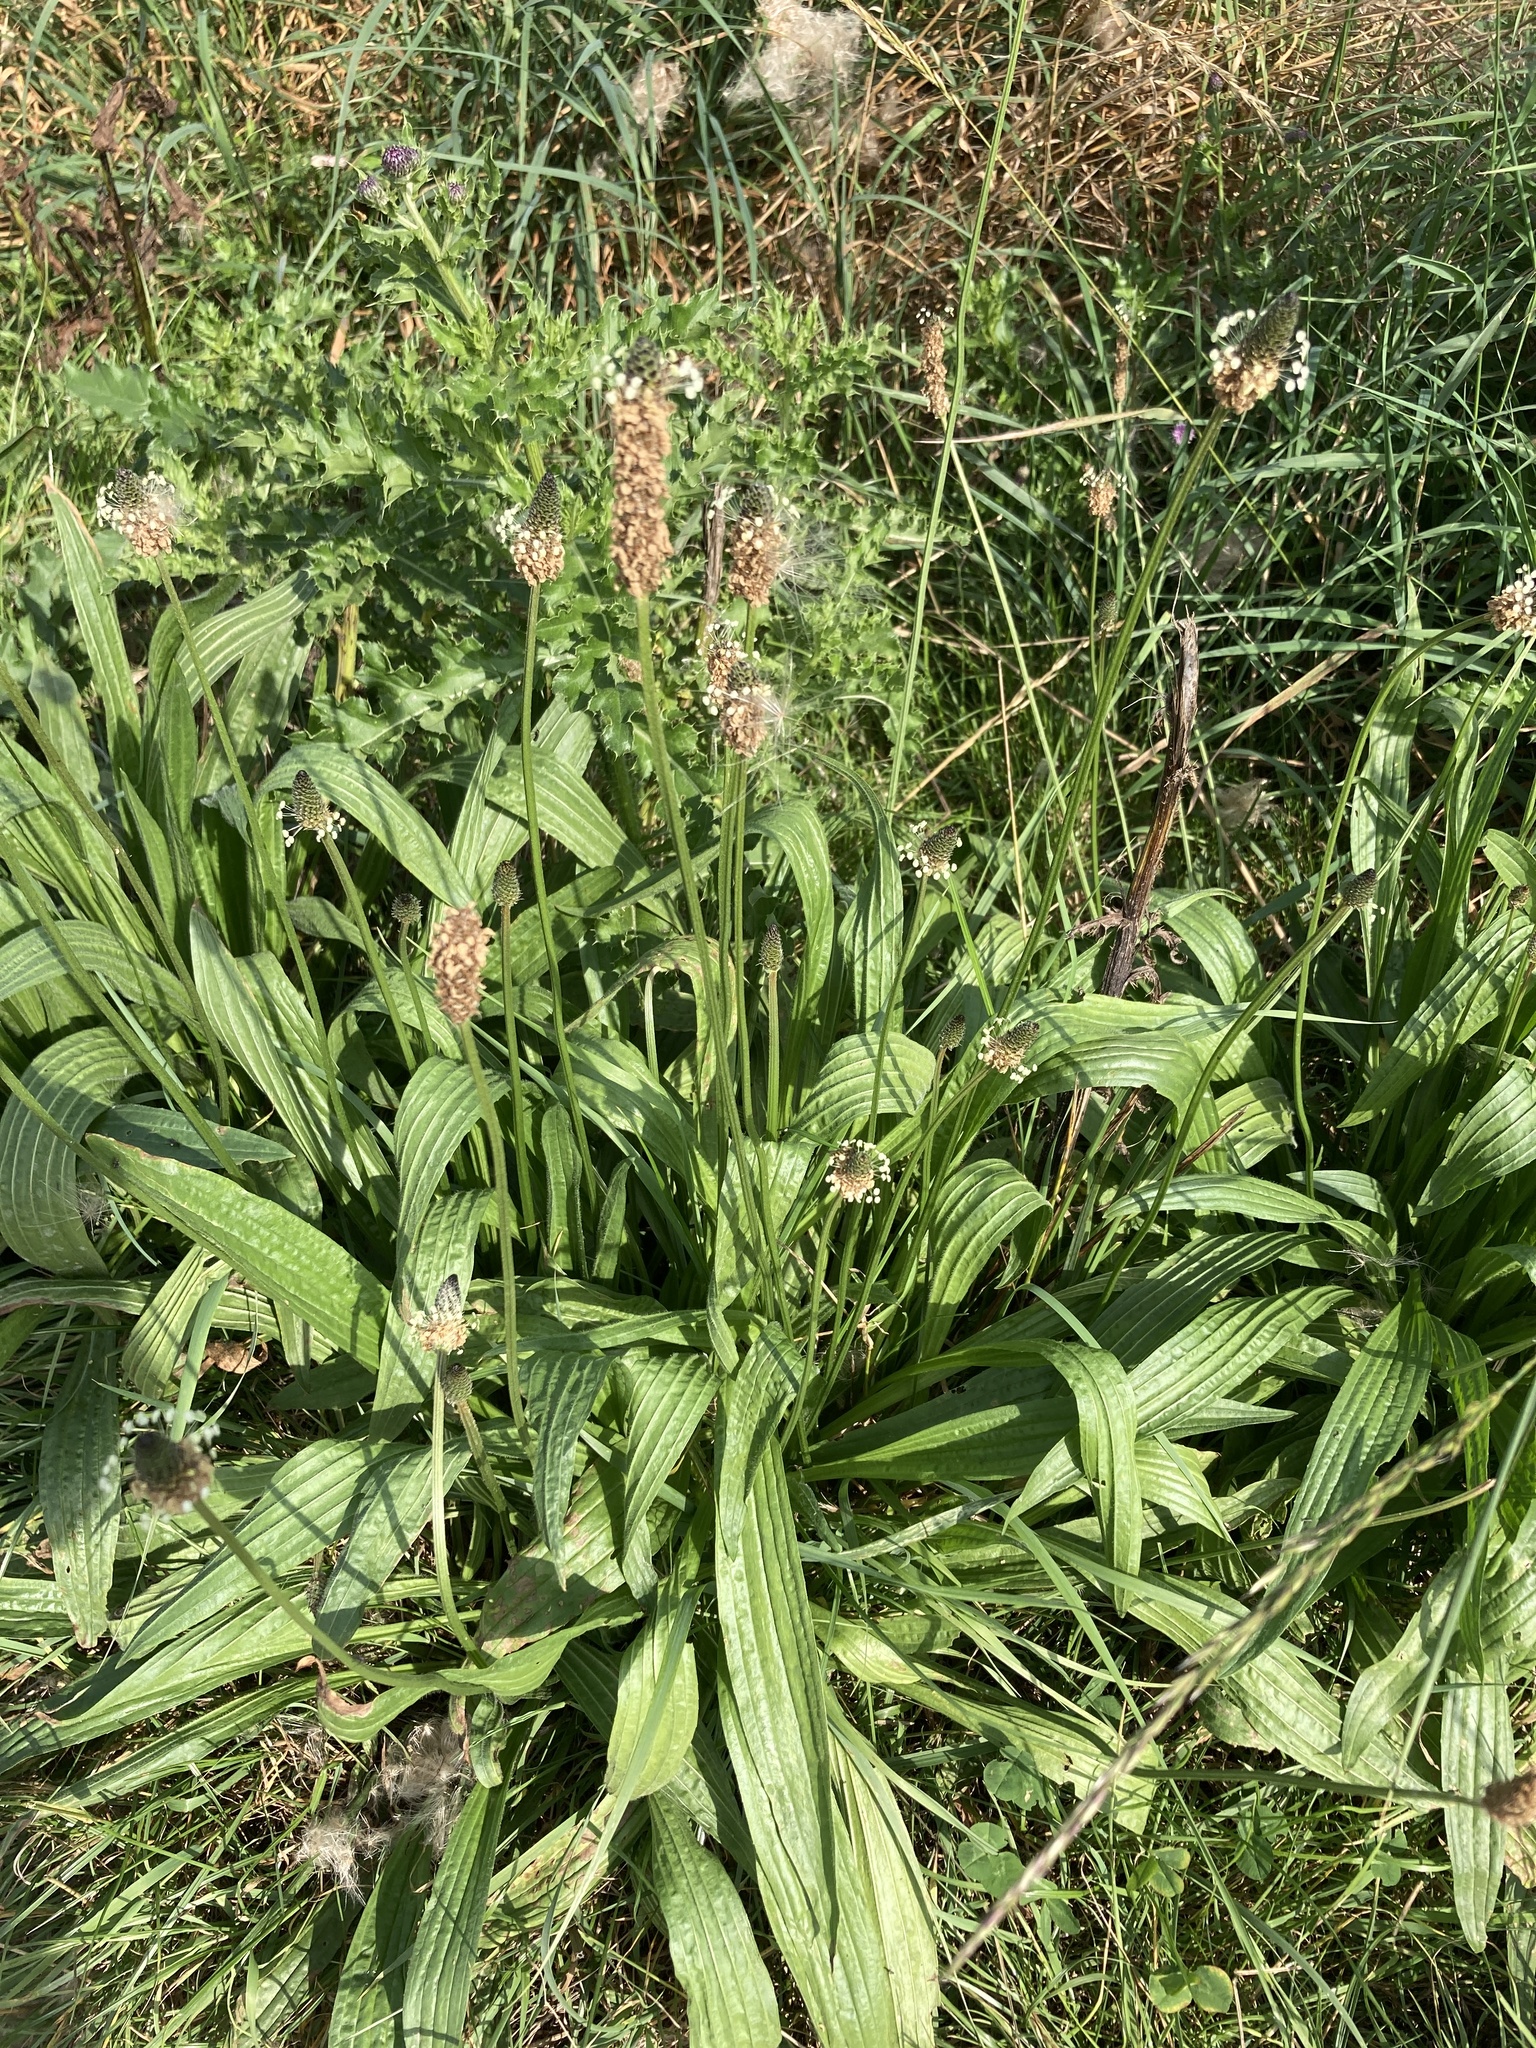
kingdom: Plantae
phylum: Tracheophyta
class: Magnoliopsida
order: Lamiales
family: Plantaginaceae
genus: Plantago
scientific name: Plantago lanceolata
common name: Ribwort plantain
